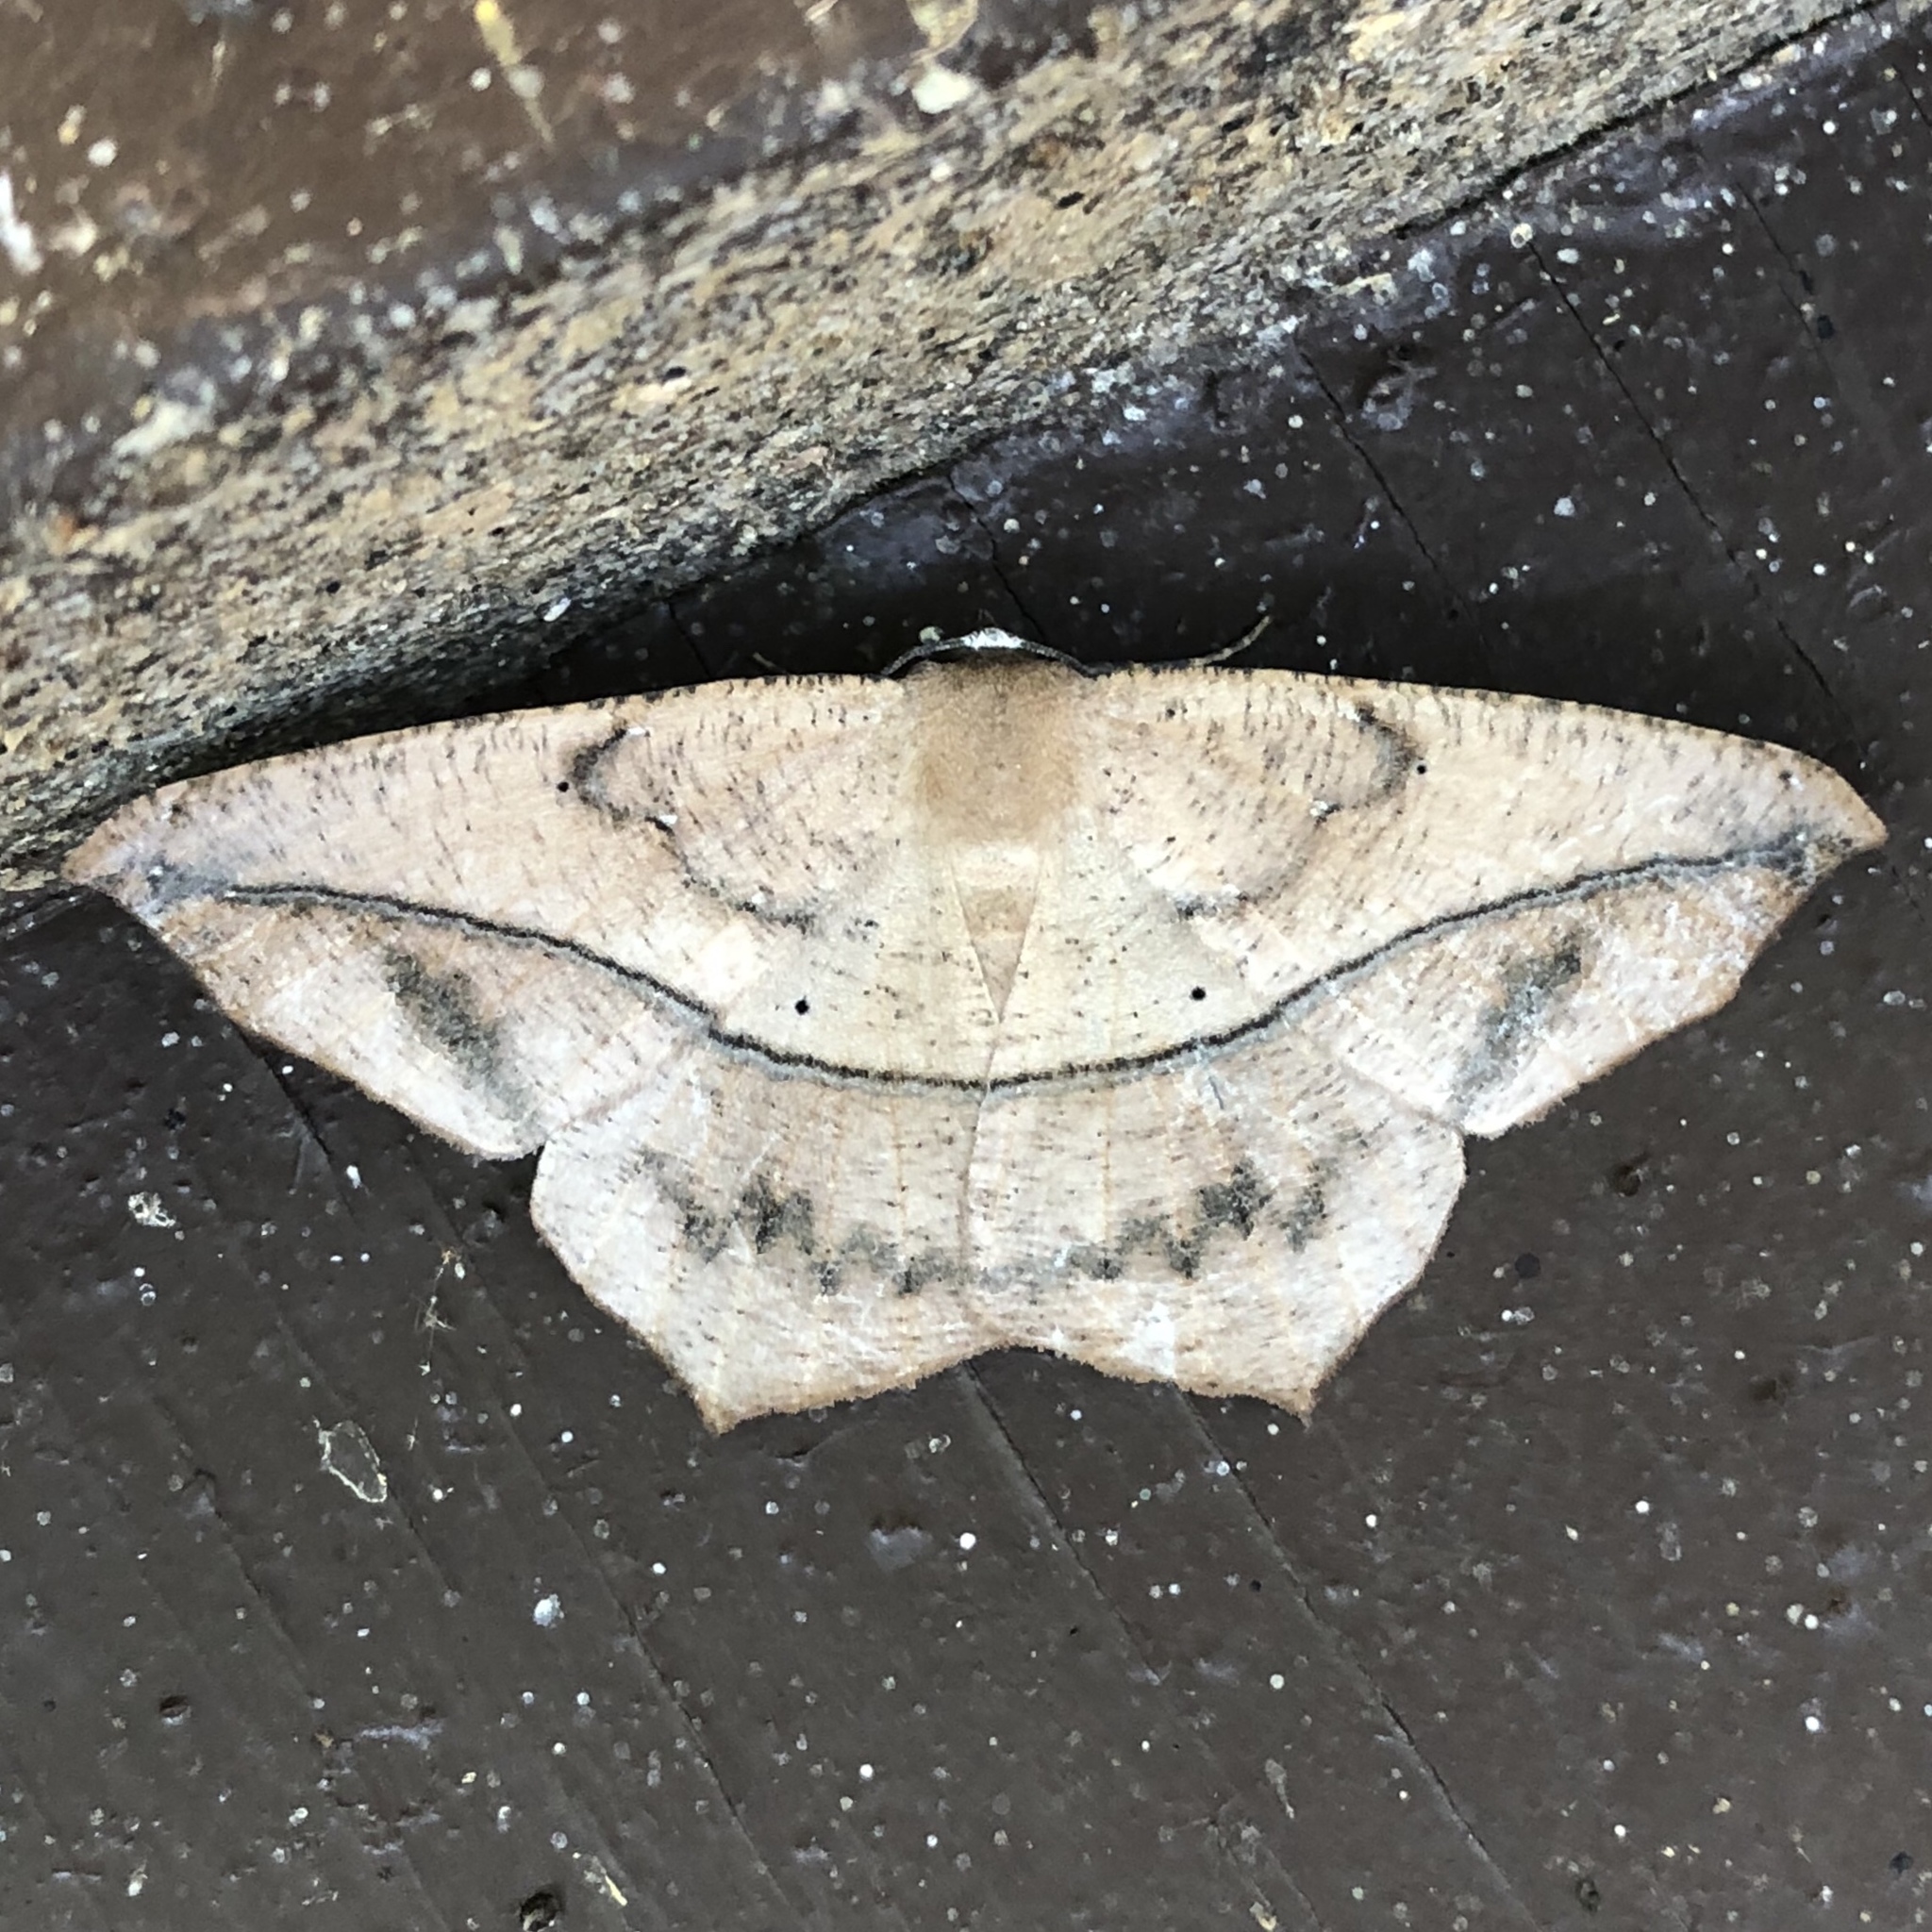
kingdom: Animalia
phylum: Arthropoda
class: Insecta
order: Lepidoptera
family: Geometridae
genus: Prochoerodes
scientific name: Prochoerodes lineola
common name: Large maple spanworm
